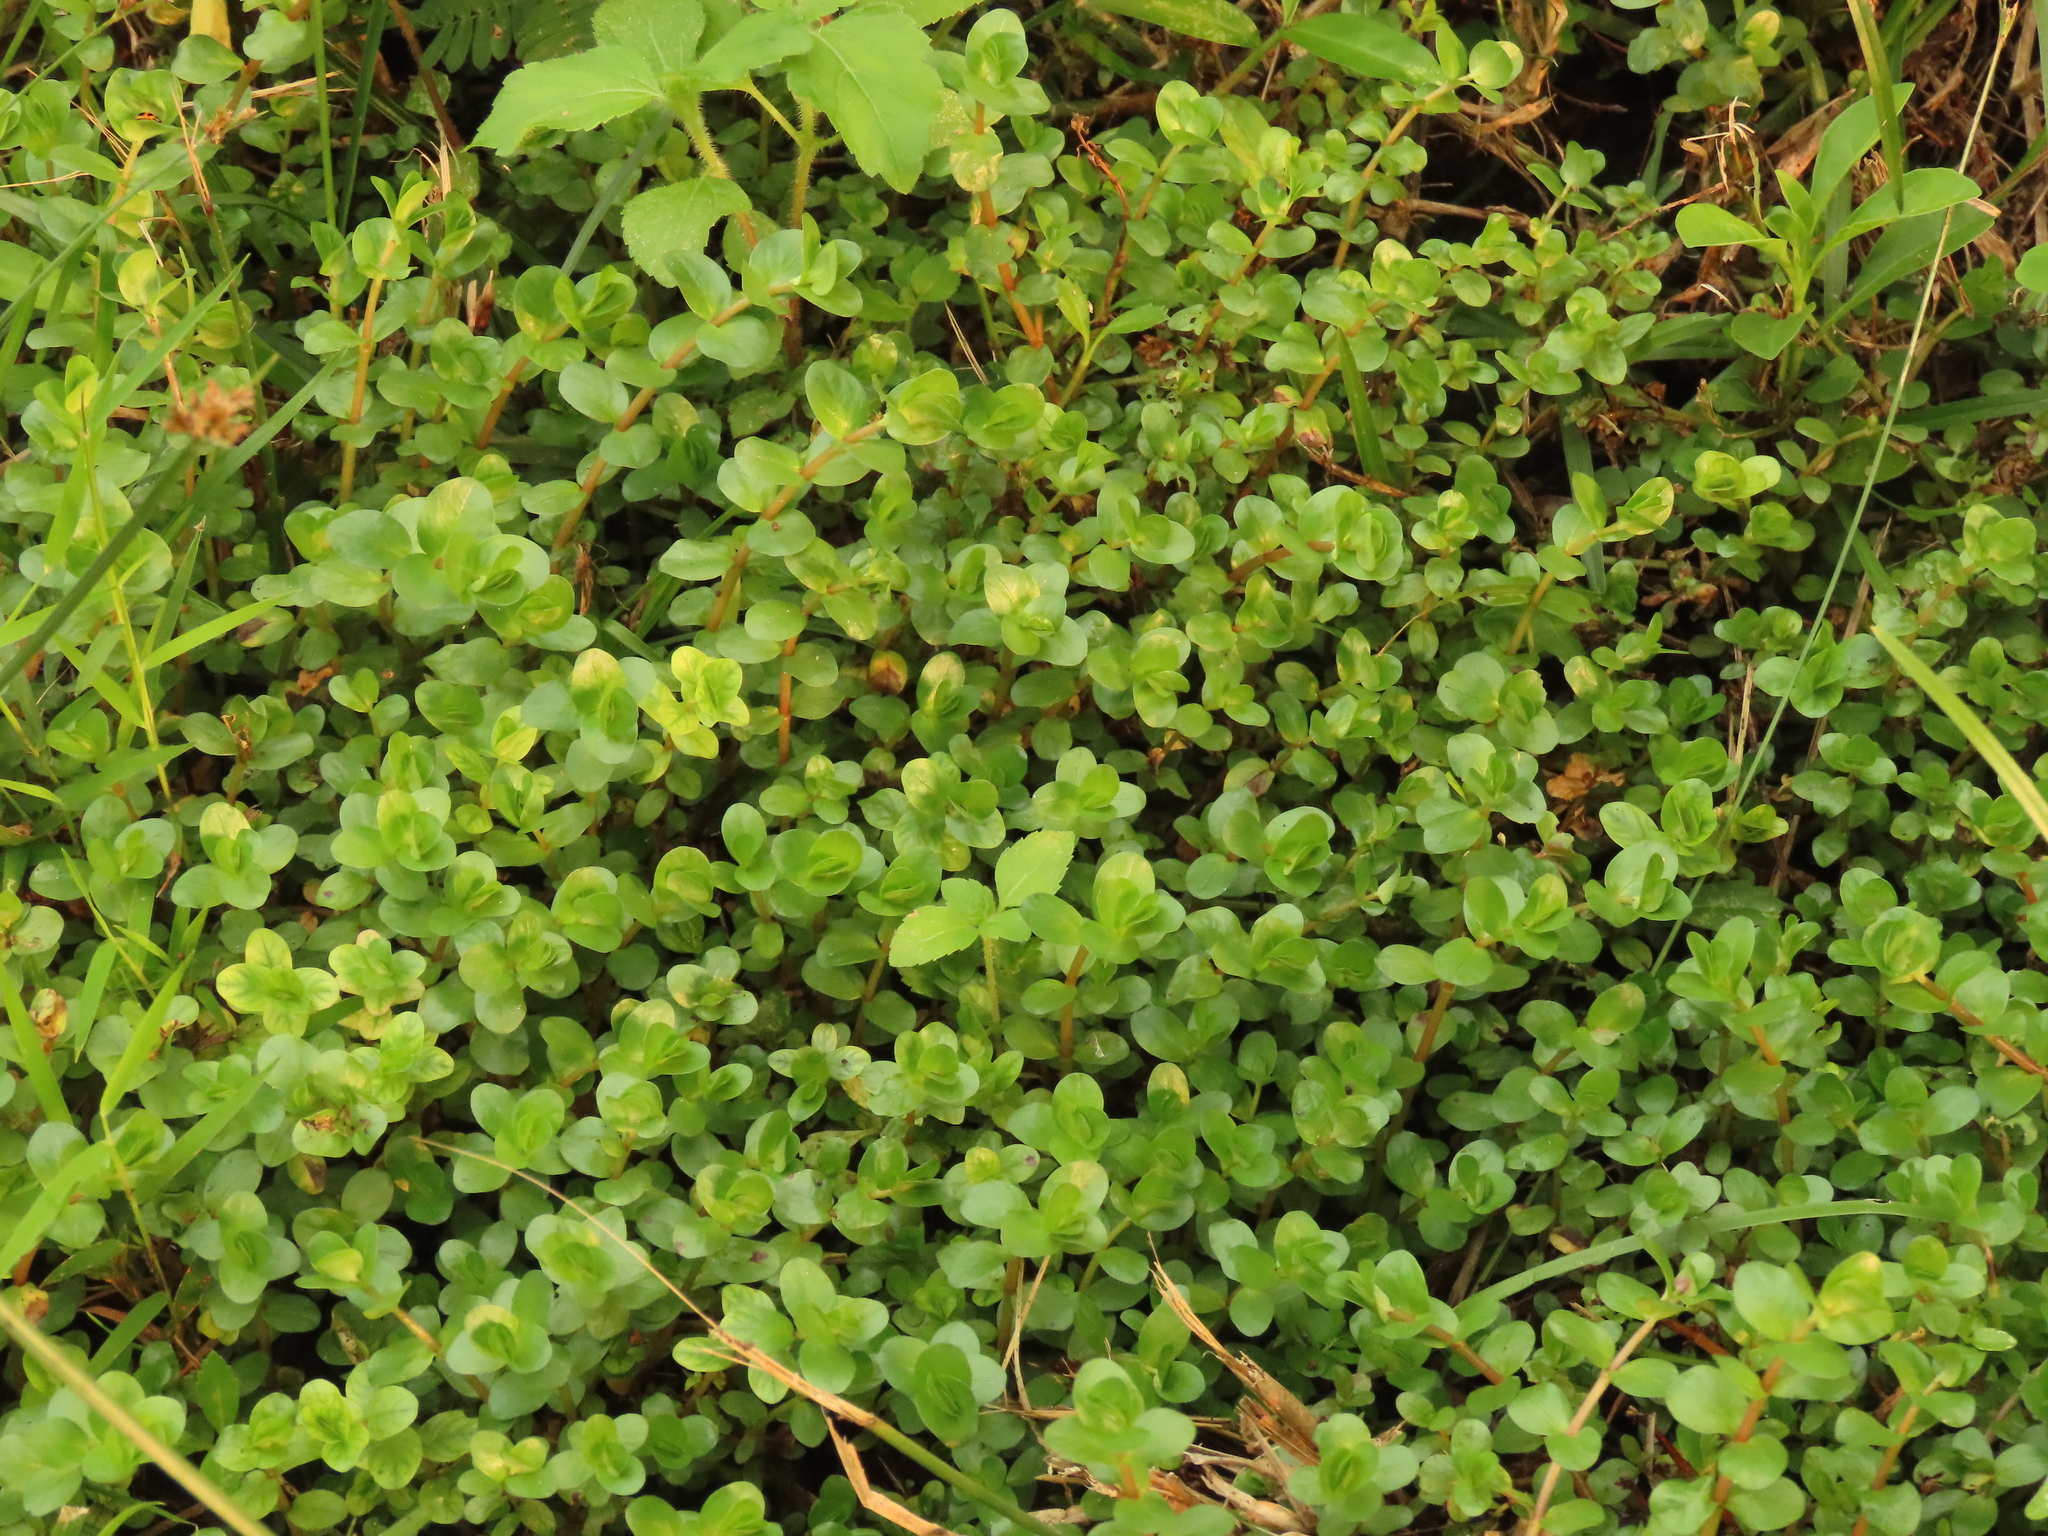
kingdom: Plantae
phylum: Tracheophyta
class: Magnoliopsida
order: Myrtales
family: Lythraceae
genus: Rotala
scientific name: Rotala rotundifolia
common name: Roundleaf toothcup
